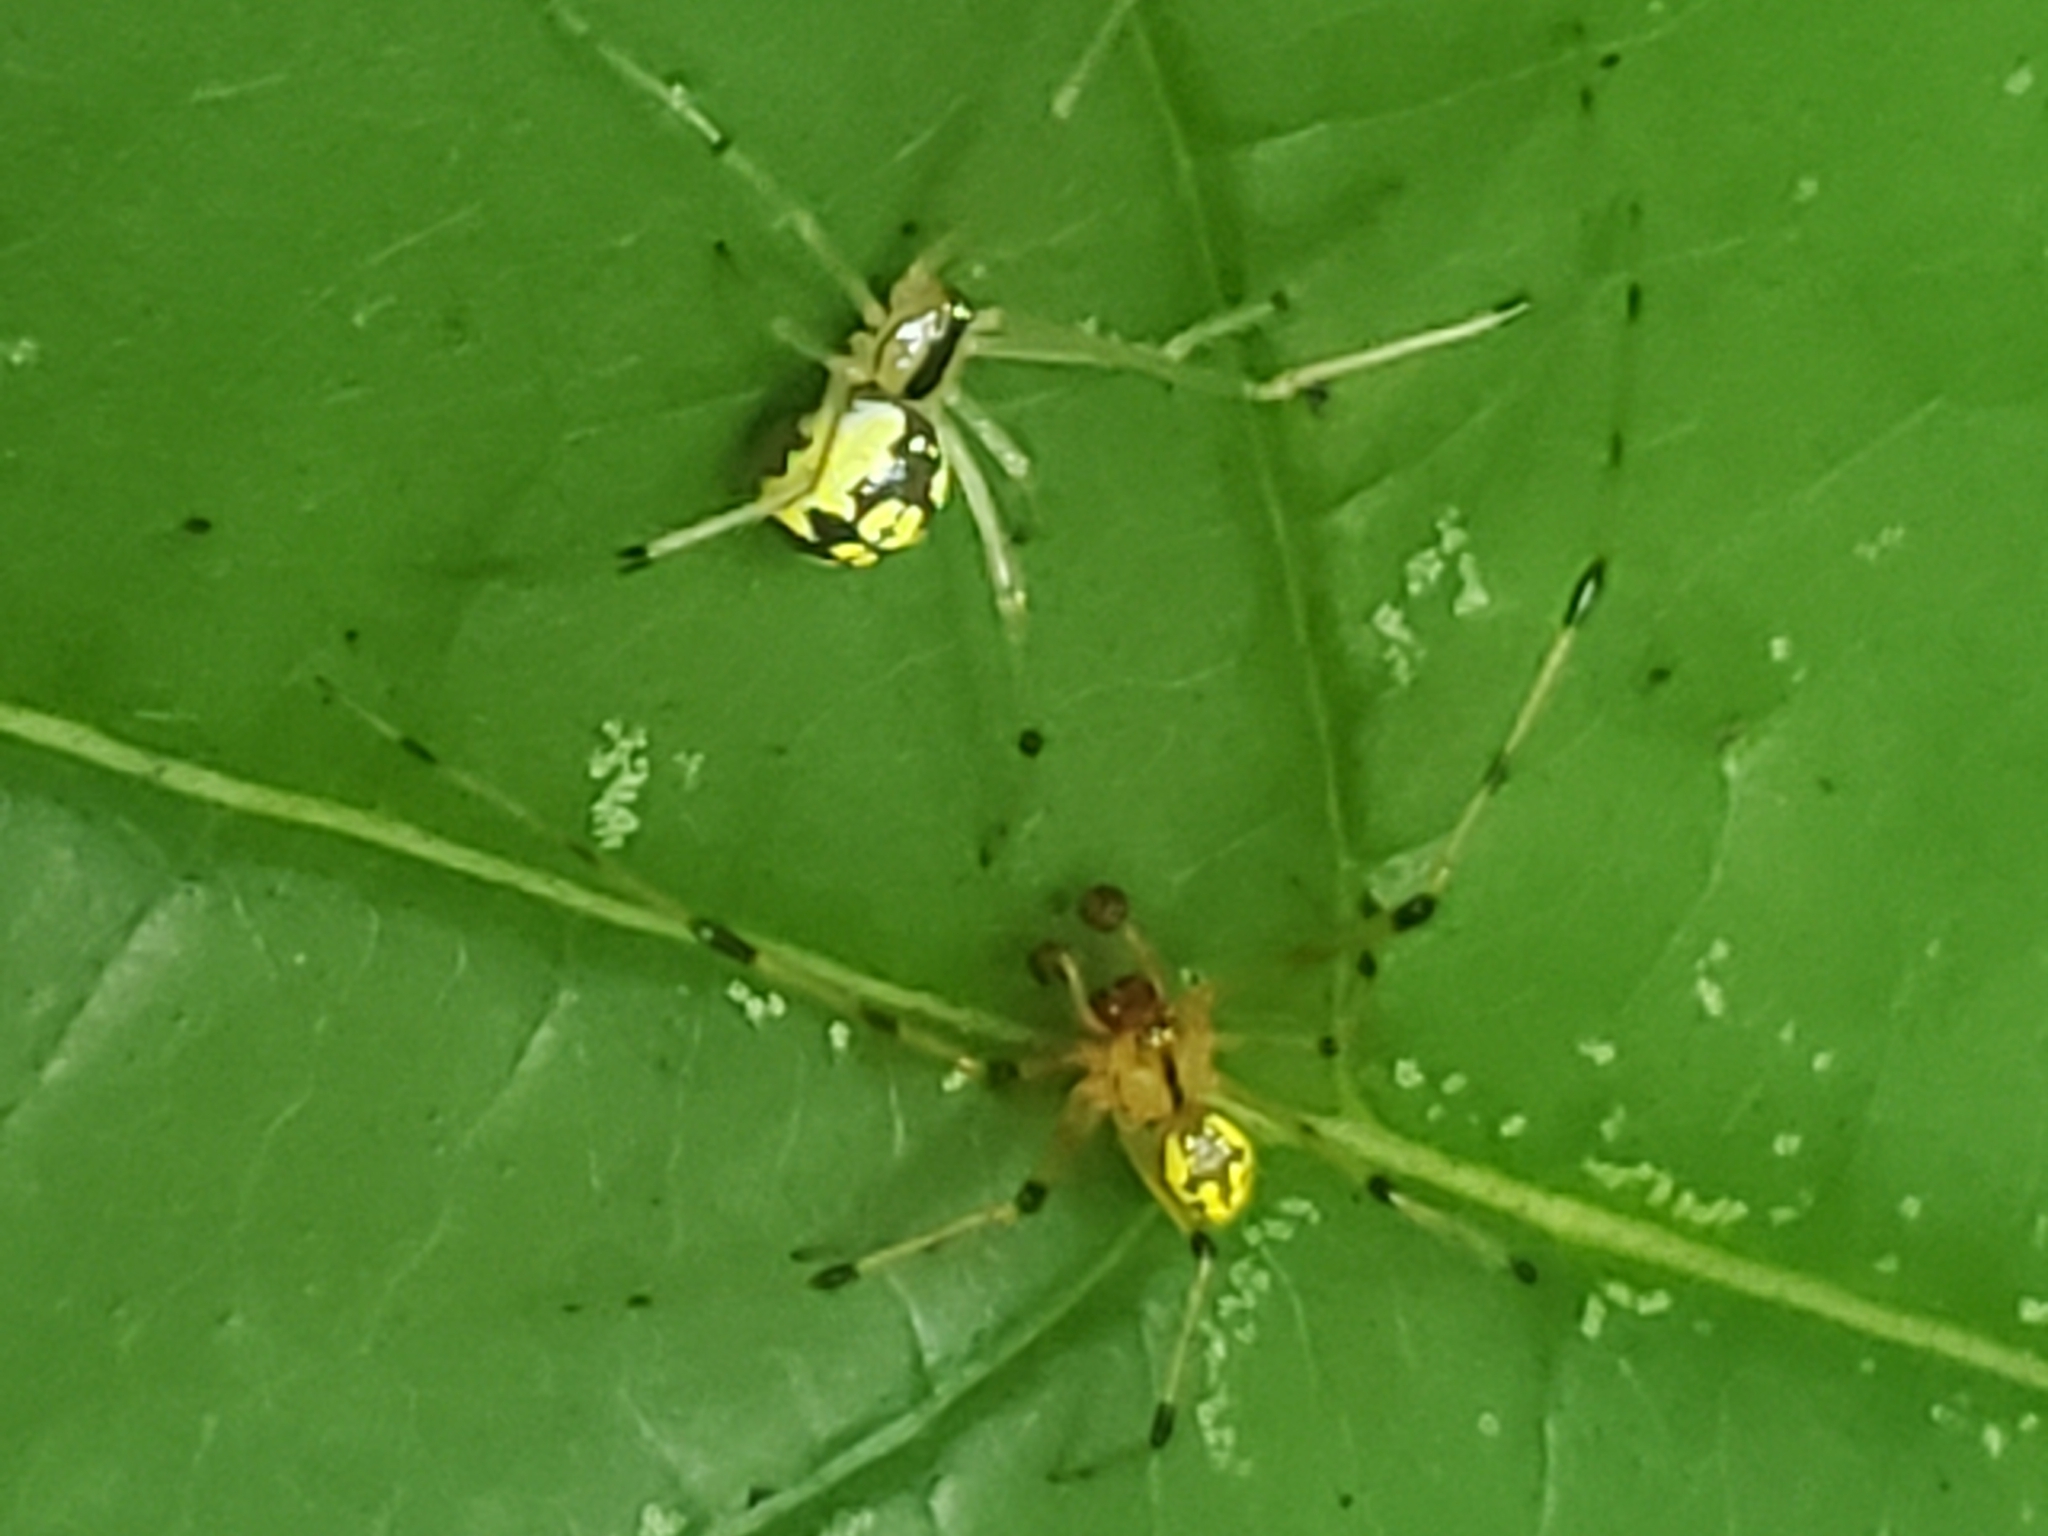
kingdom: Animalia
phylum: Arthropoda
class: Arachnida
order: Araneae
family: Theridiidae
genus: Phylloneta
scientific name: Phylloneta pictipes
